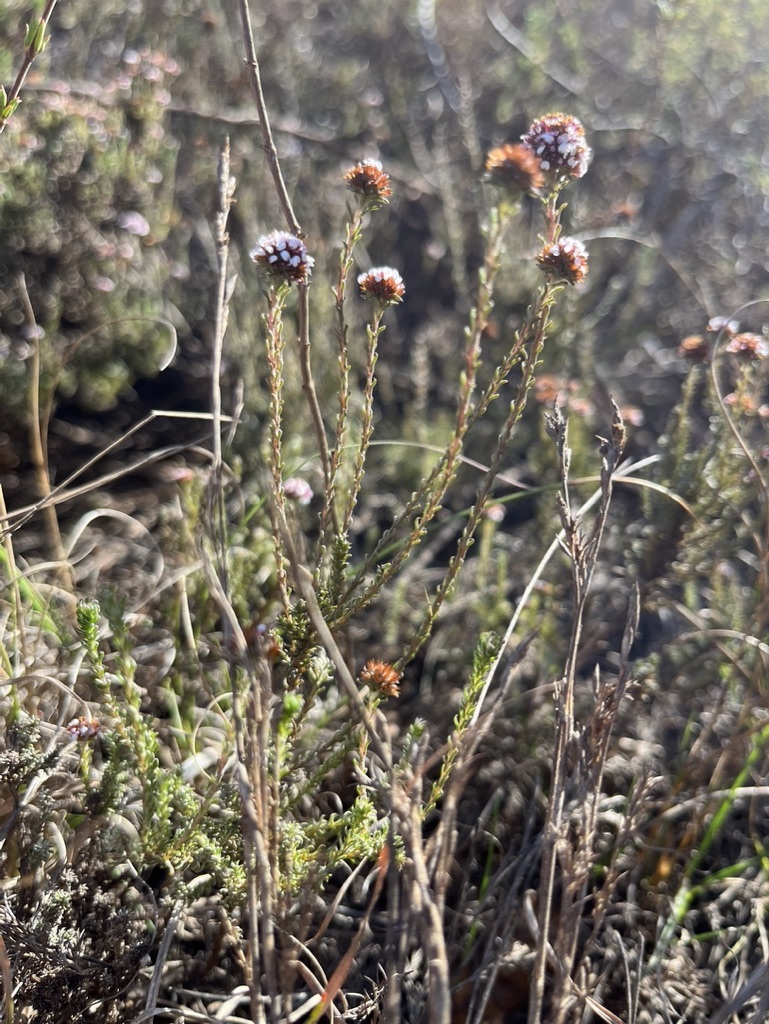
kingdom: Plantae
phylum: Tracheophyta
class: Magnoliopsida
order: Asterales
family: Asteraceae
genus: Stoebe
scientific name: Stoebe capitata
